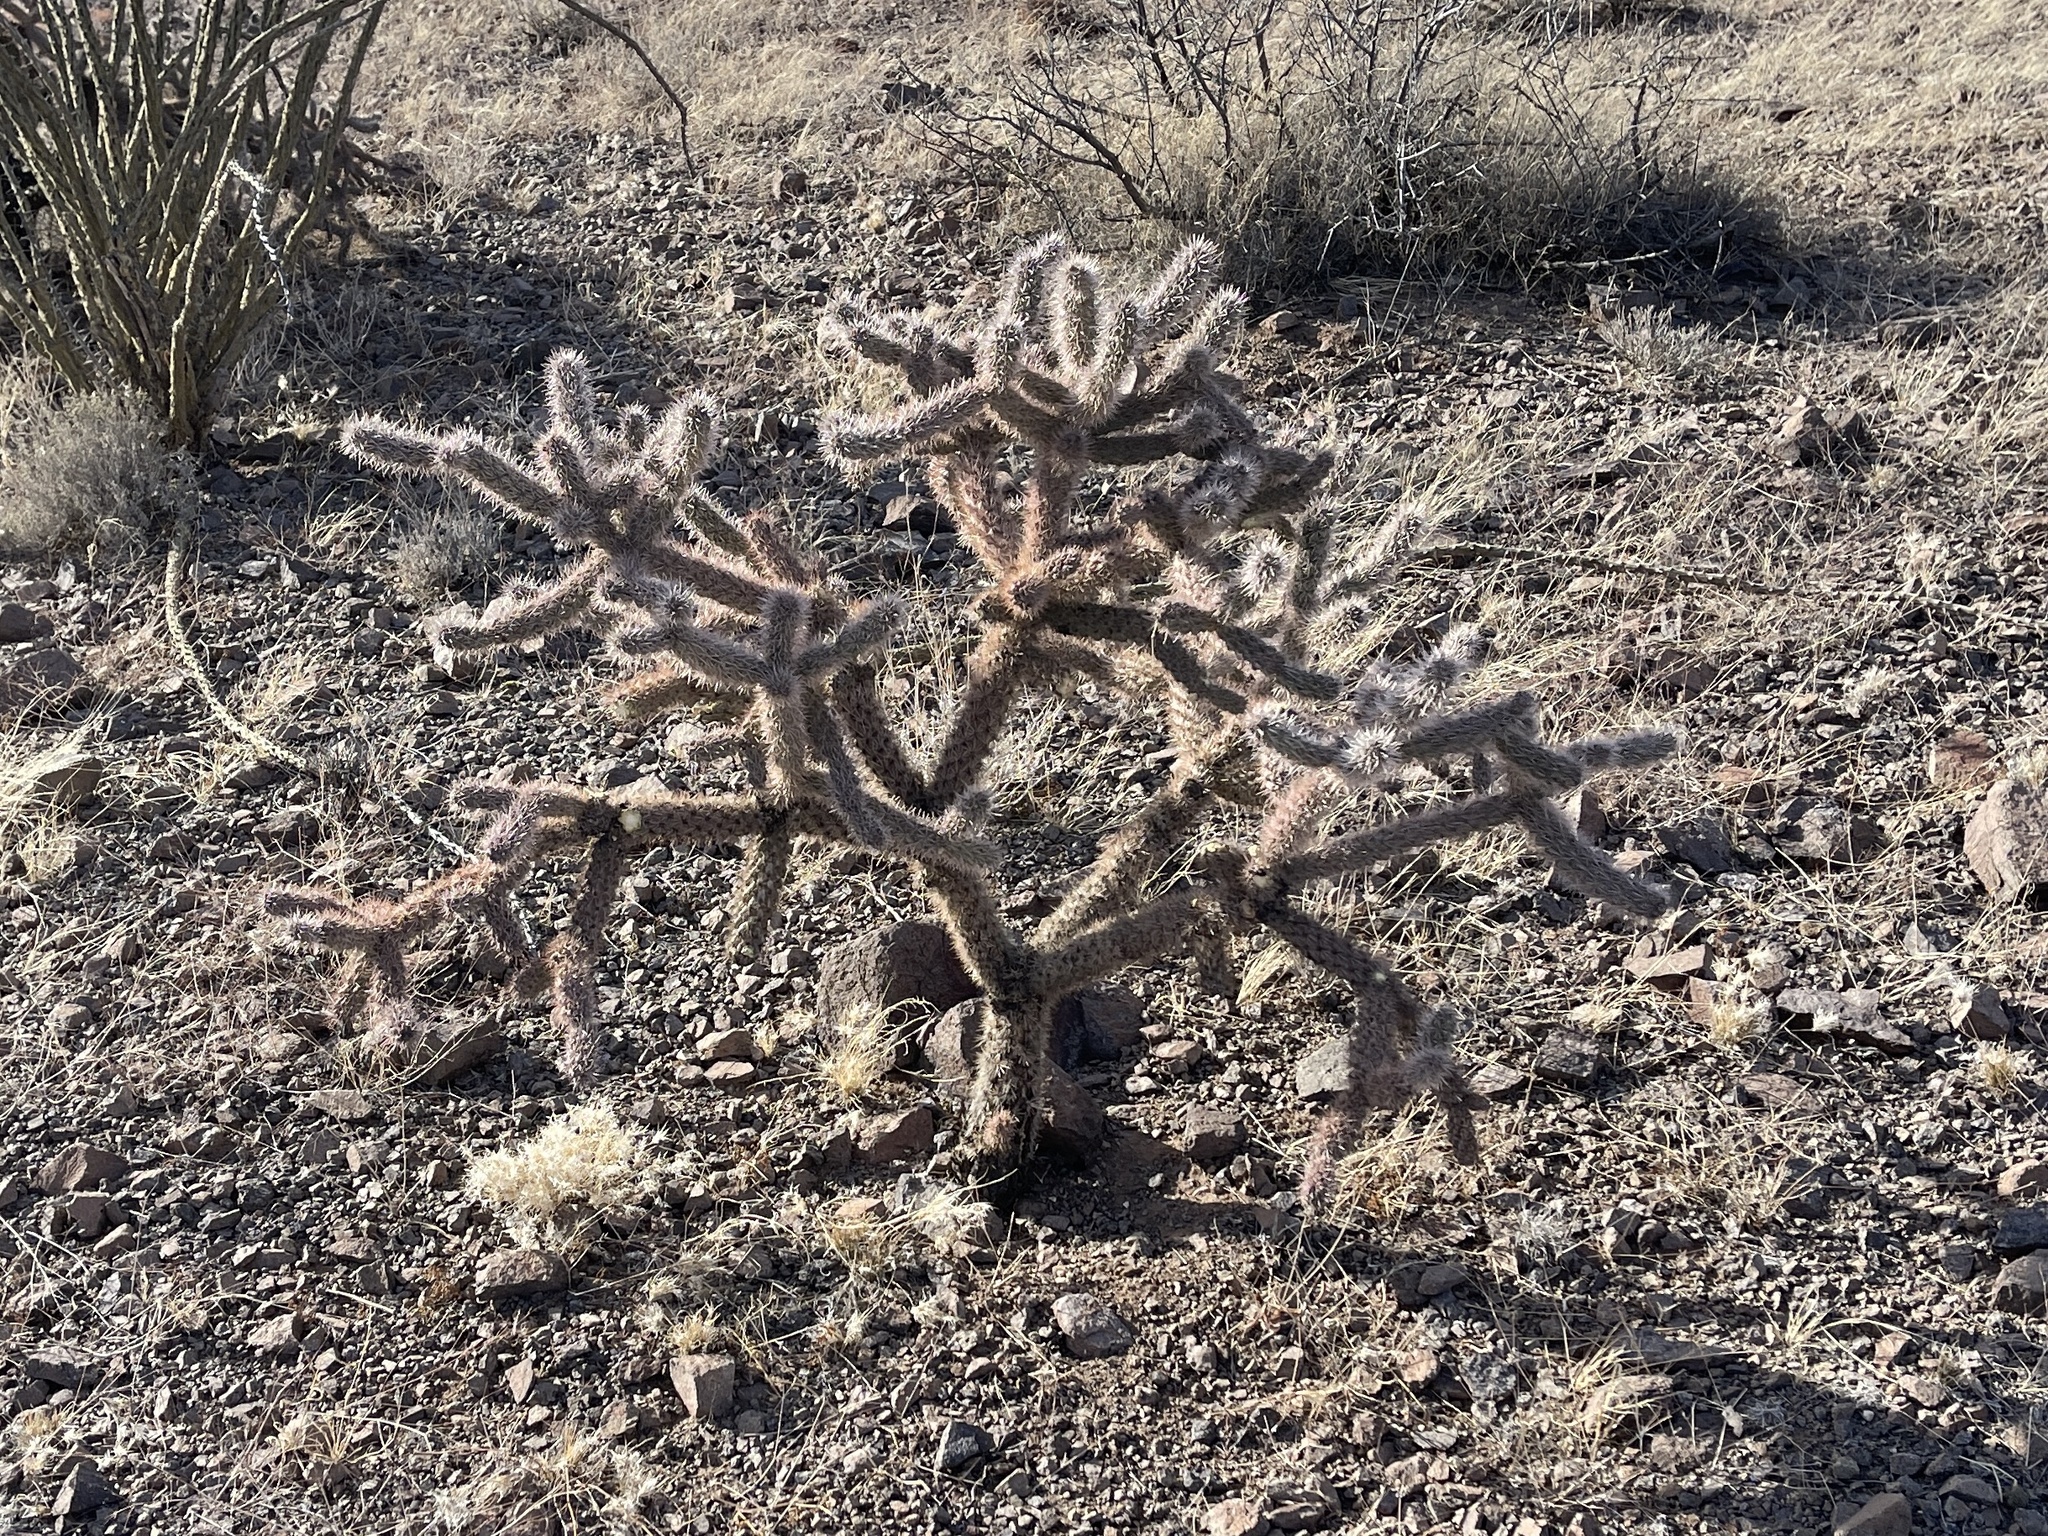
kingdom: Plantae
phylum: Tracheophyta
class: Magnoliopsida
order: Caryophyllales
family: Cactaceae
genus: Cylindropuntia
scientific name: Cylindropuntia imbricata
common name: Candelabrum cactus
